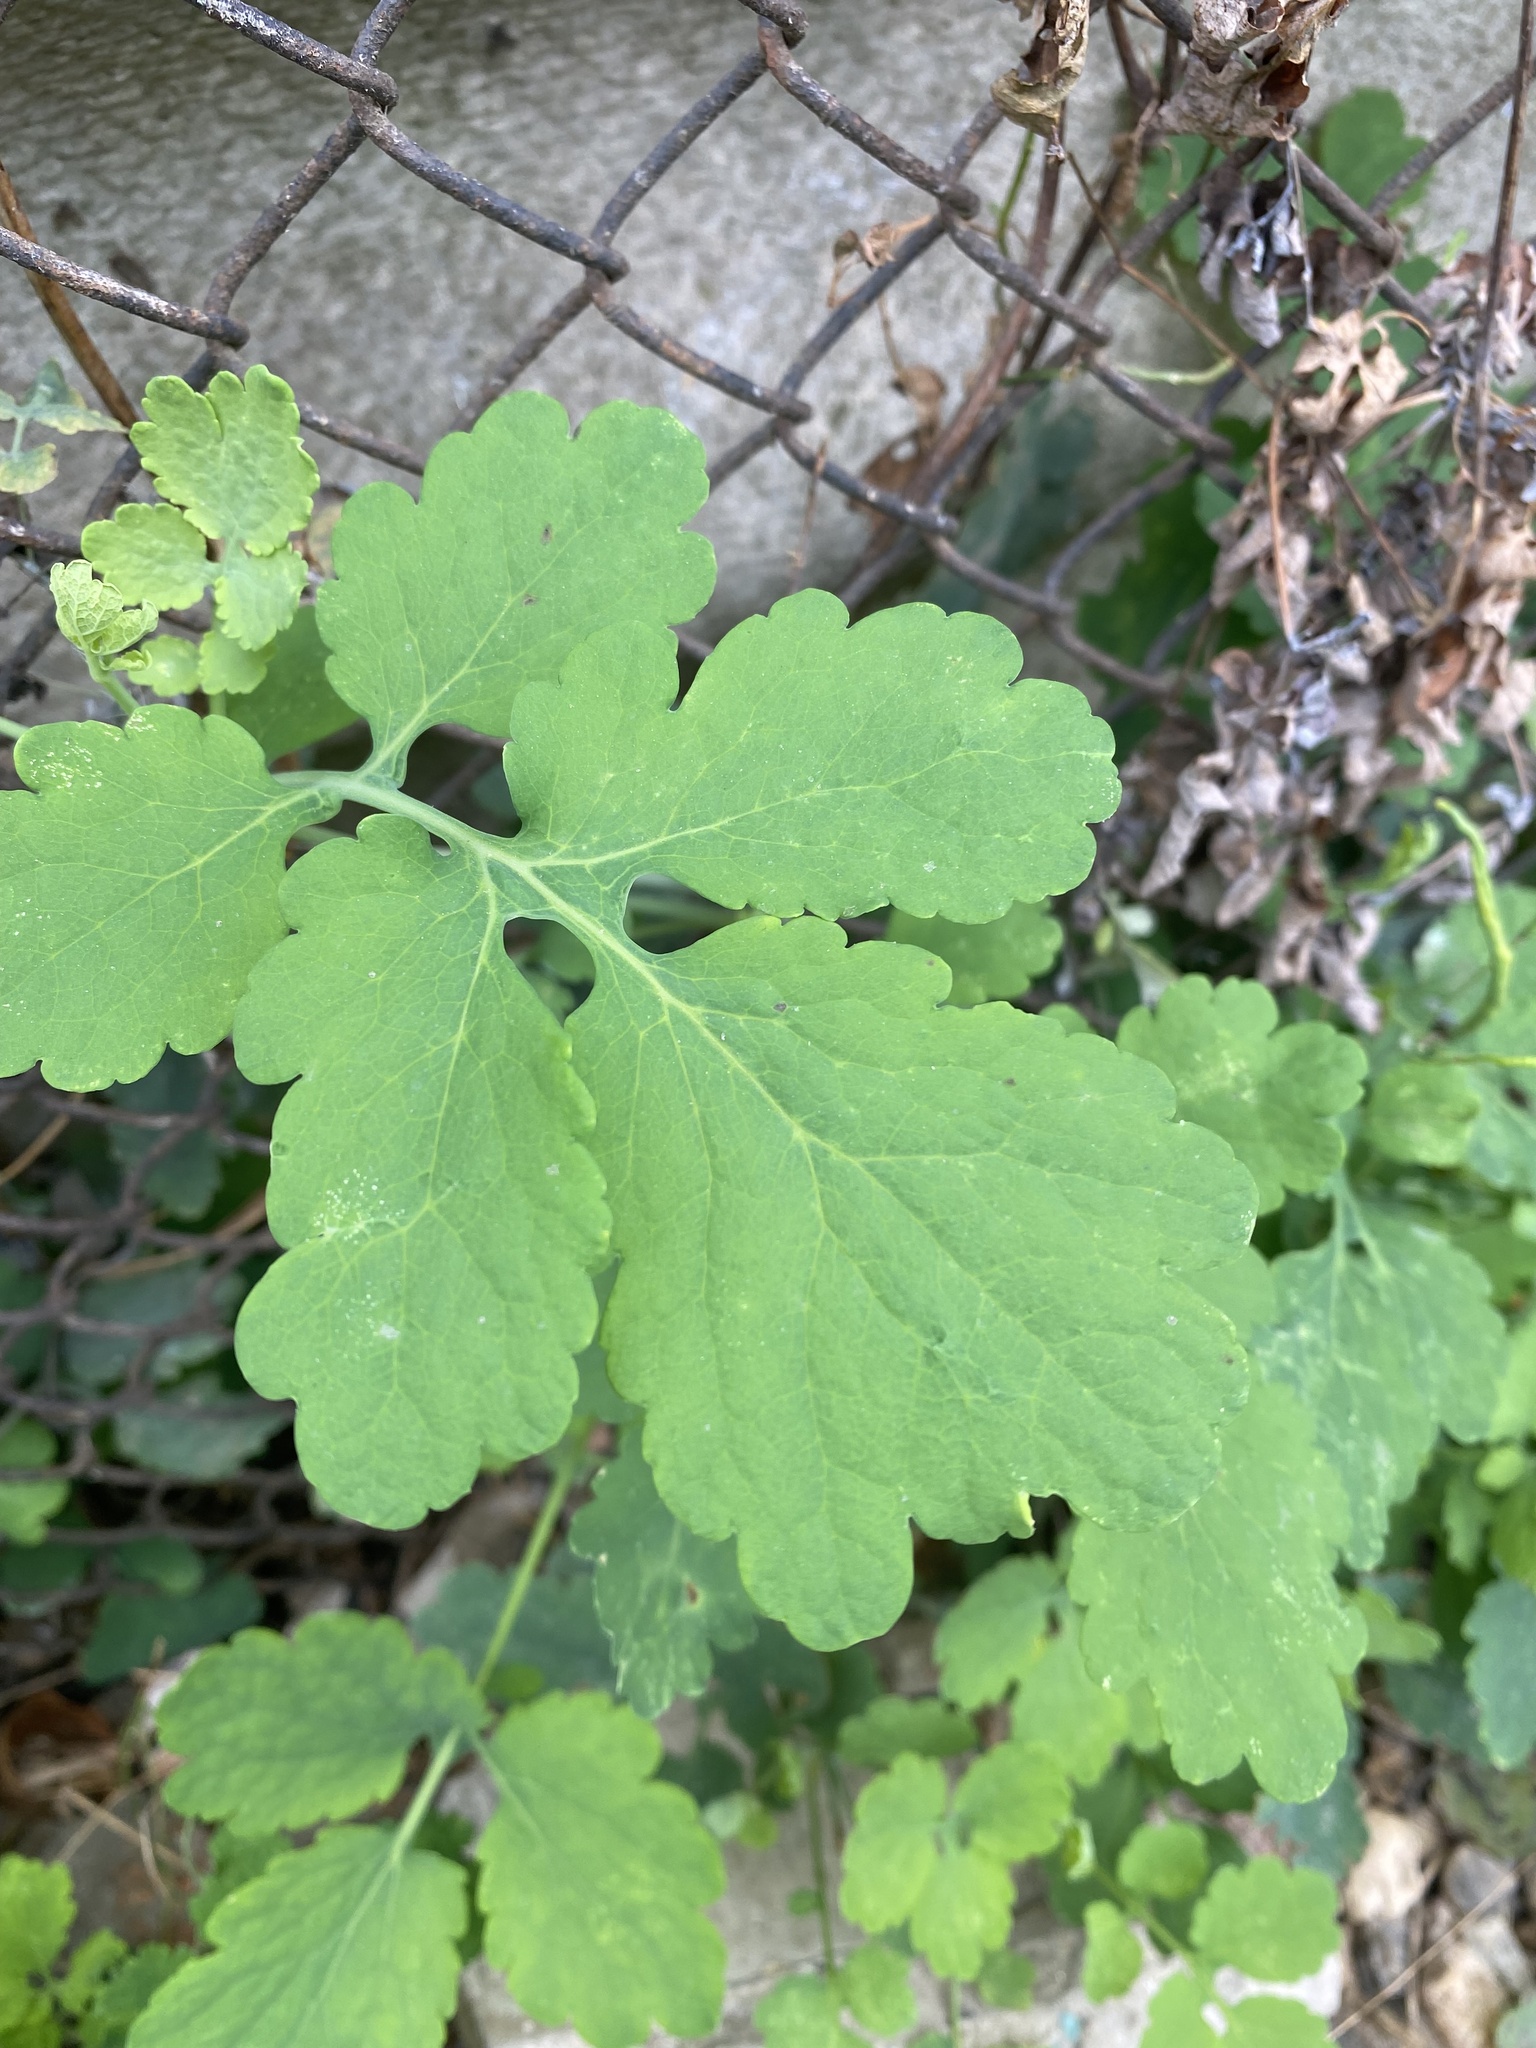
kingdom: Plantae
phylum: Tracheophyta
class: Magnoliopsida
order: Ranunculales
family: Papaveraceae
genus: Chelidonium
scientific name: Chelidonium majus
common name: Greater celandine
